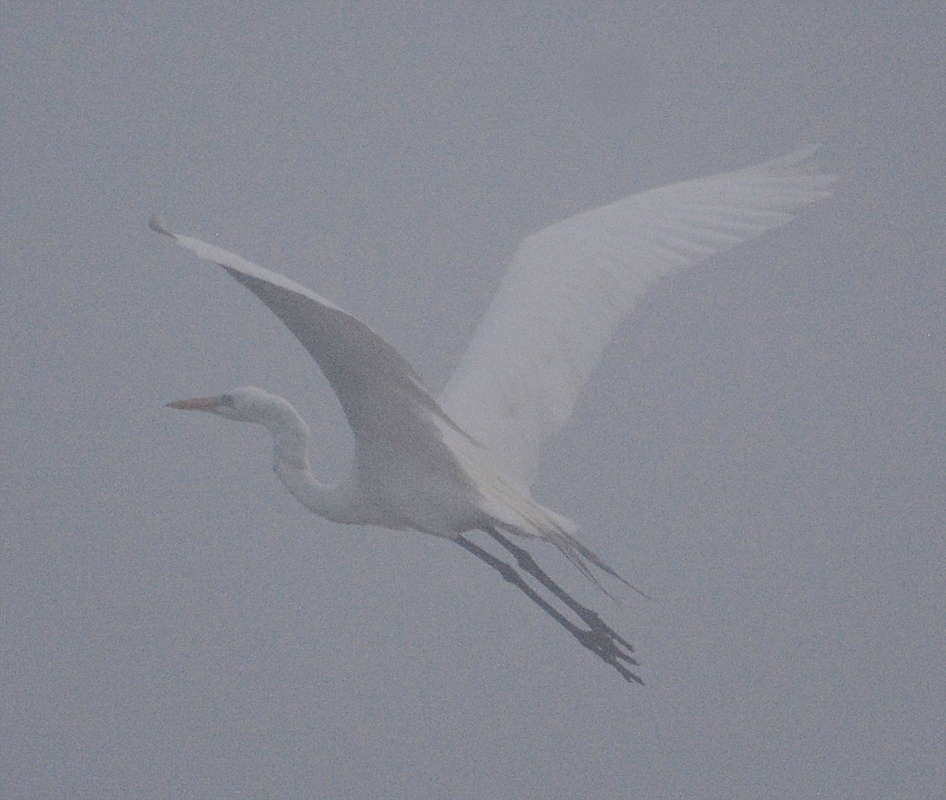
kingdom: Animalia
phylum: Chordata
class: Aves
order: Pelecaniformes
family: Ardeidae
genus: Ardea
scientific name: Ardea alba
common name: Great egret
